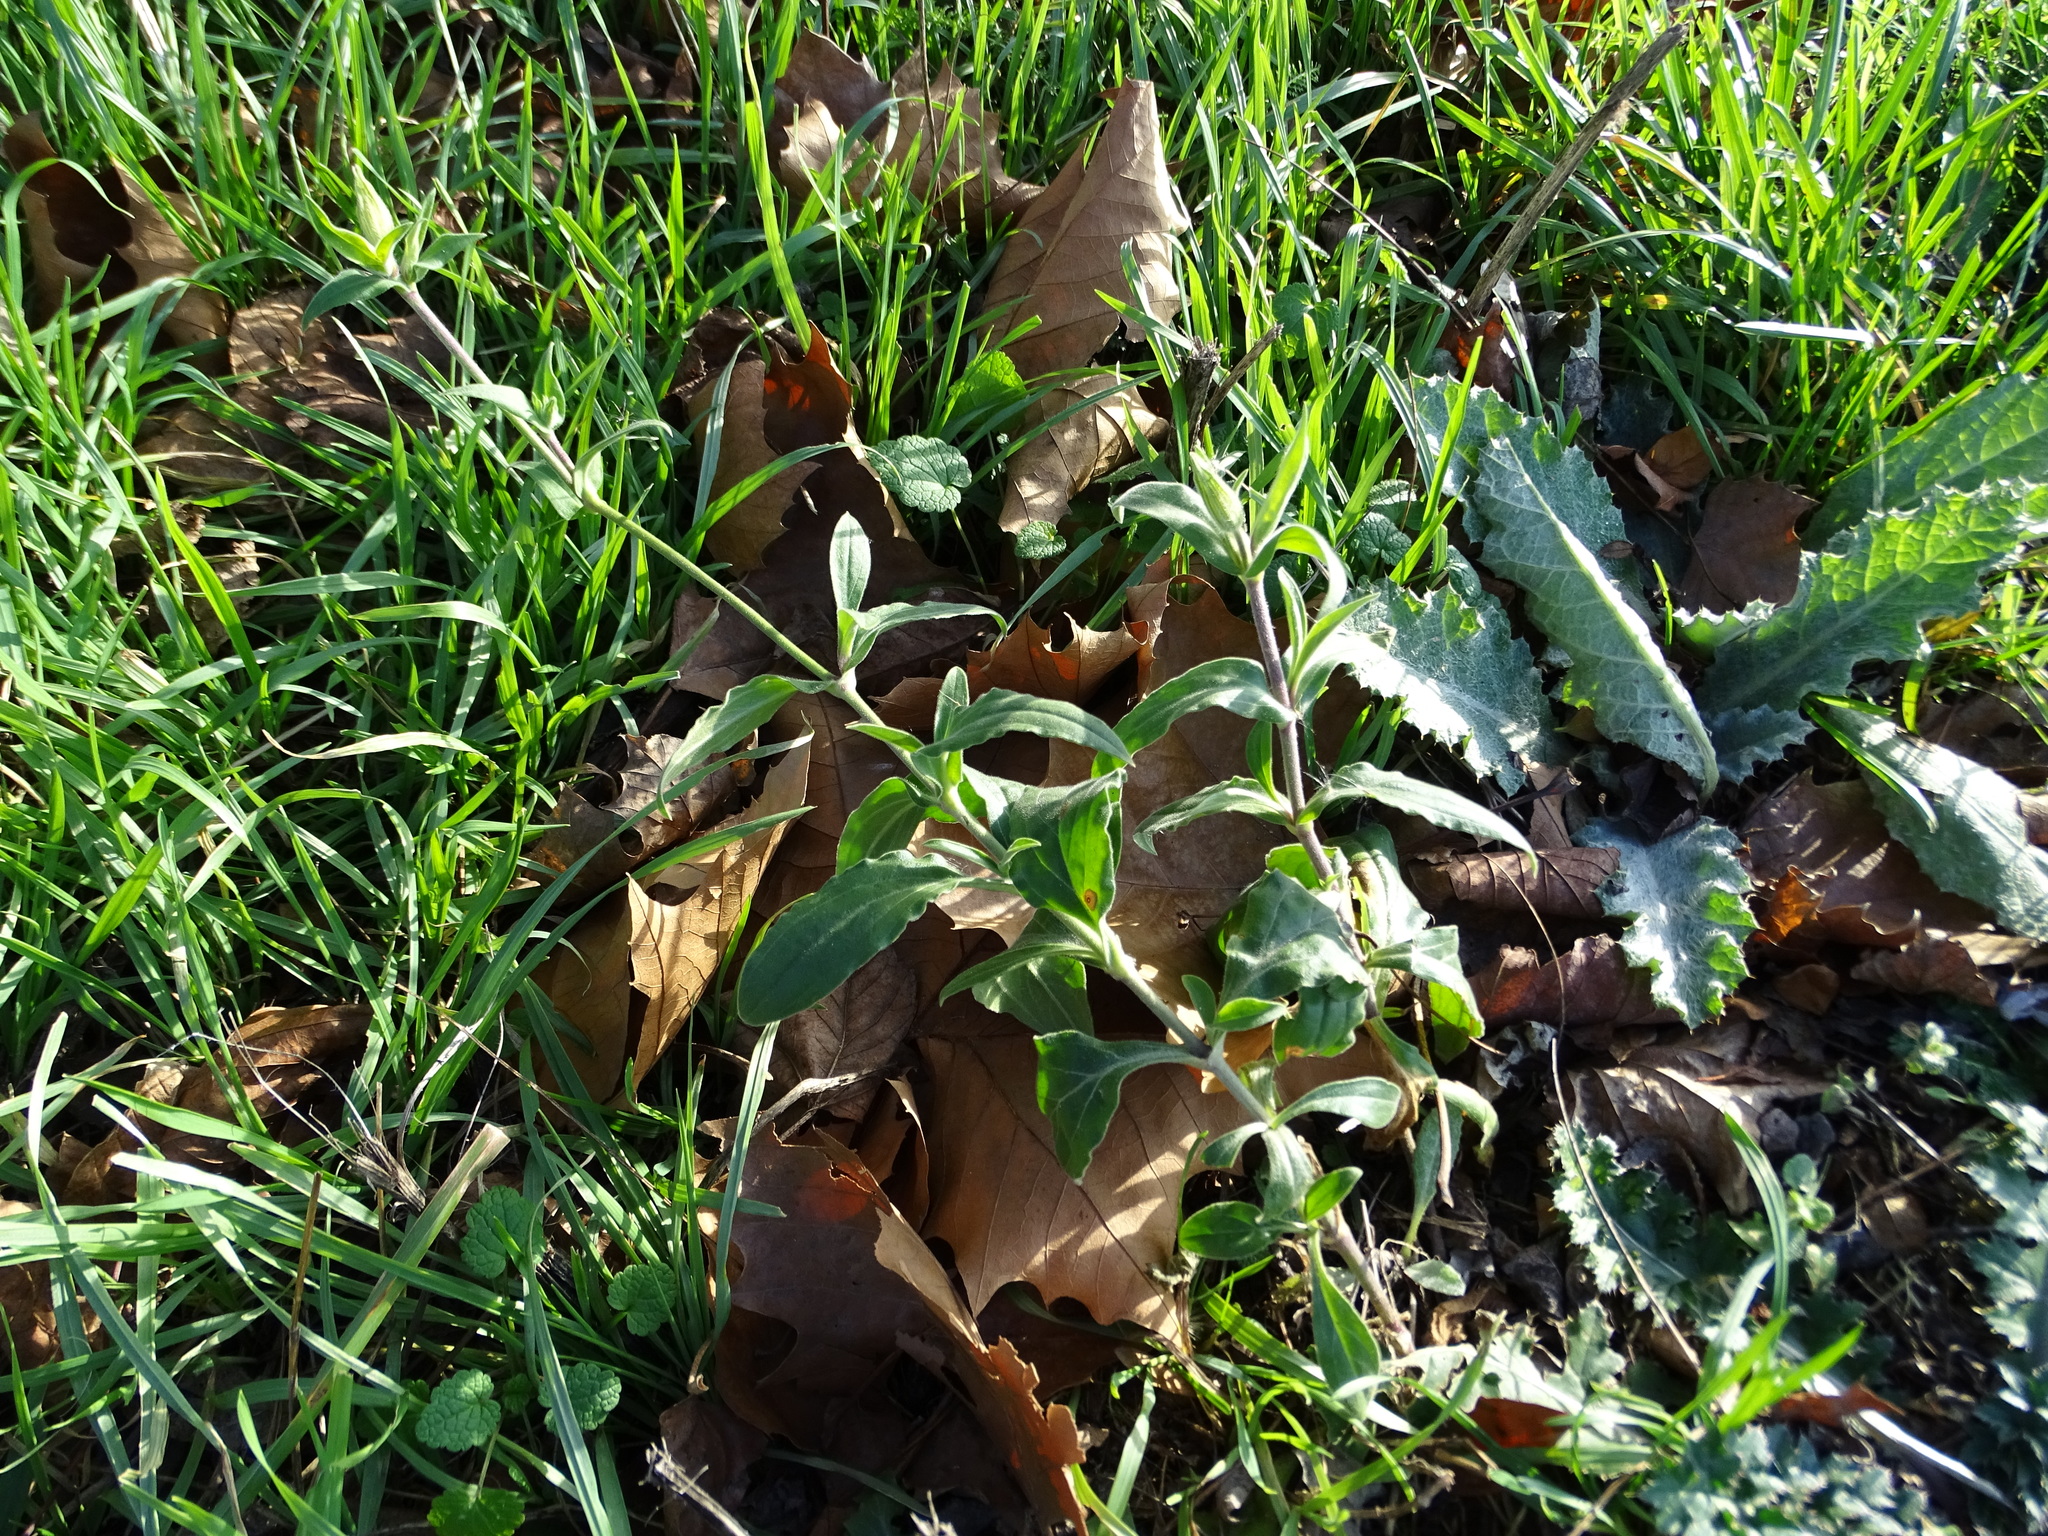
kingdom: Plantae
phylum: Tracheophyta
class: Magnoliopsida
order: Caryophyllales
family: Caryophyllaceae
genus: Silene
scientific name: Silene latifolia
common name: White campion
